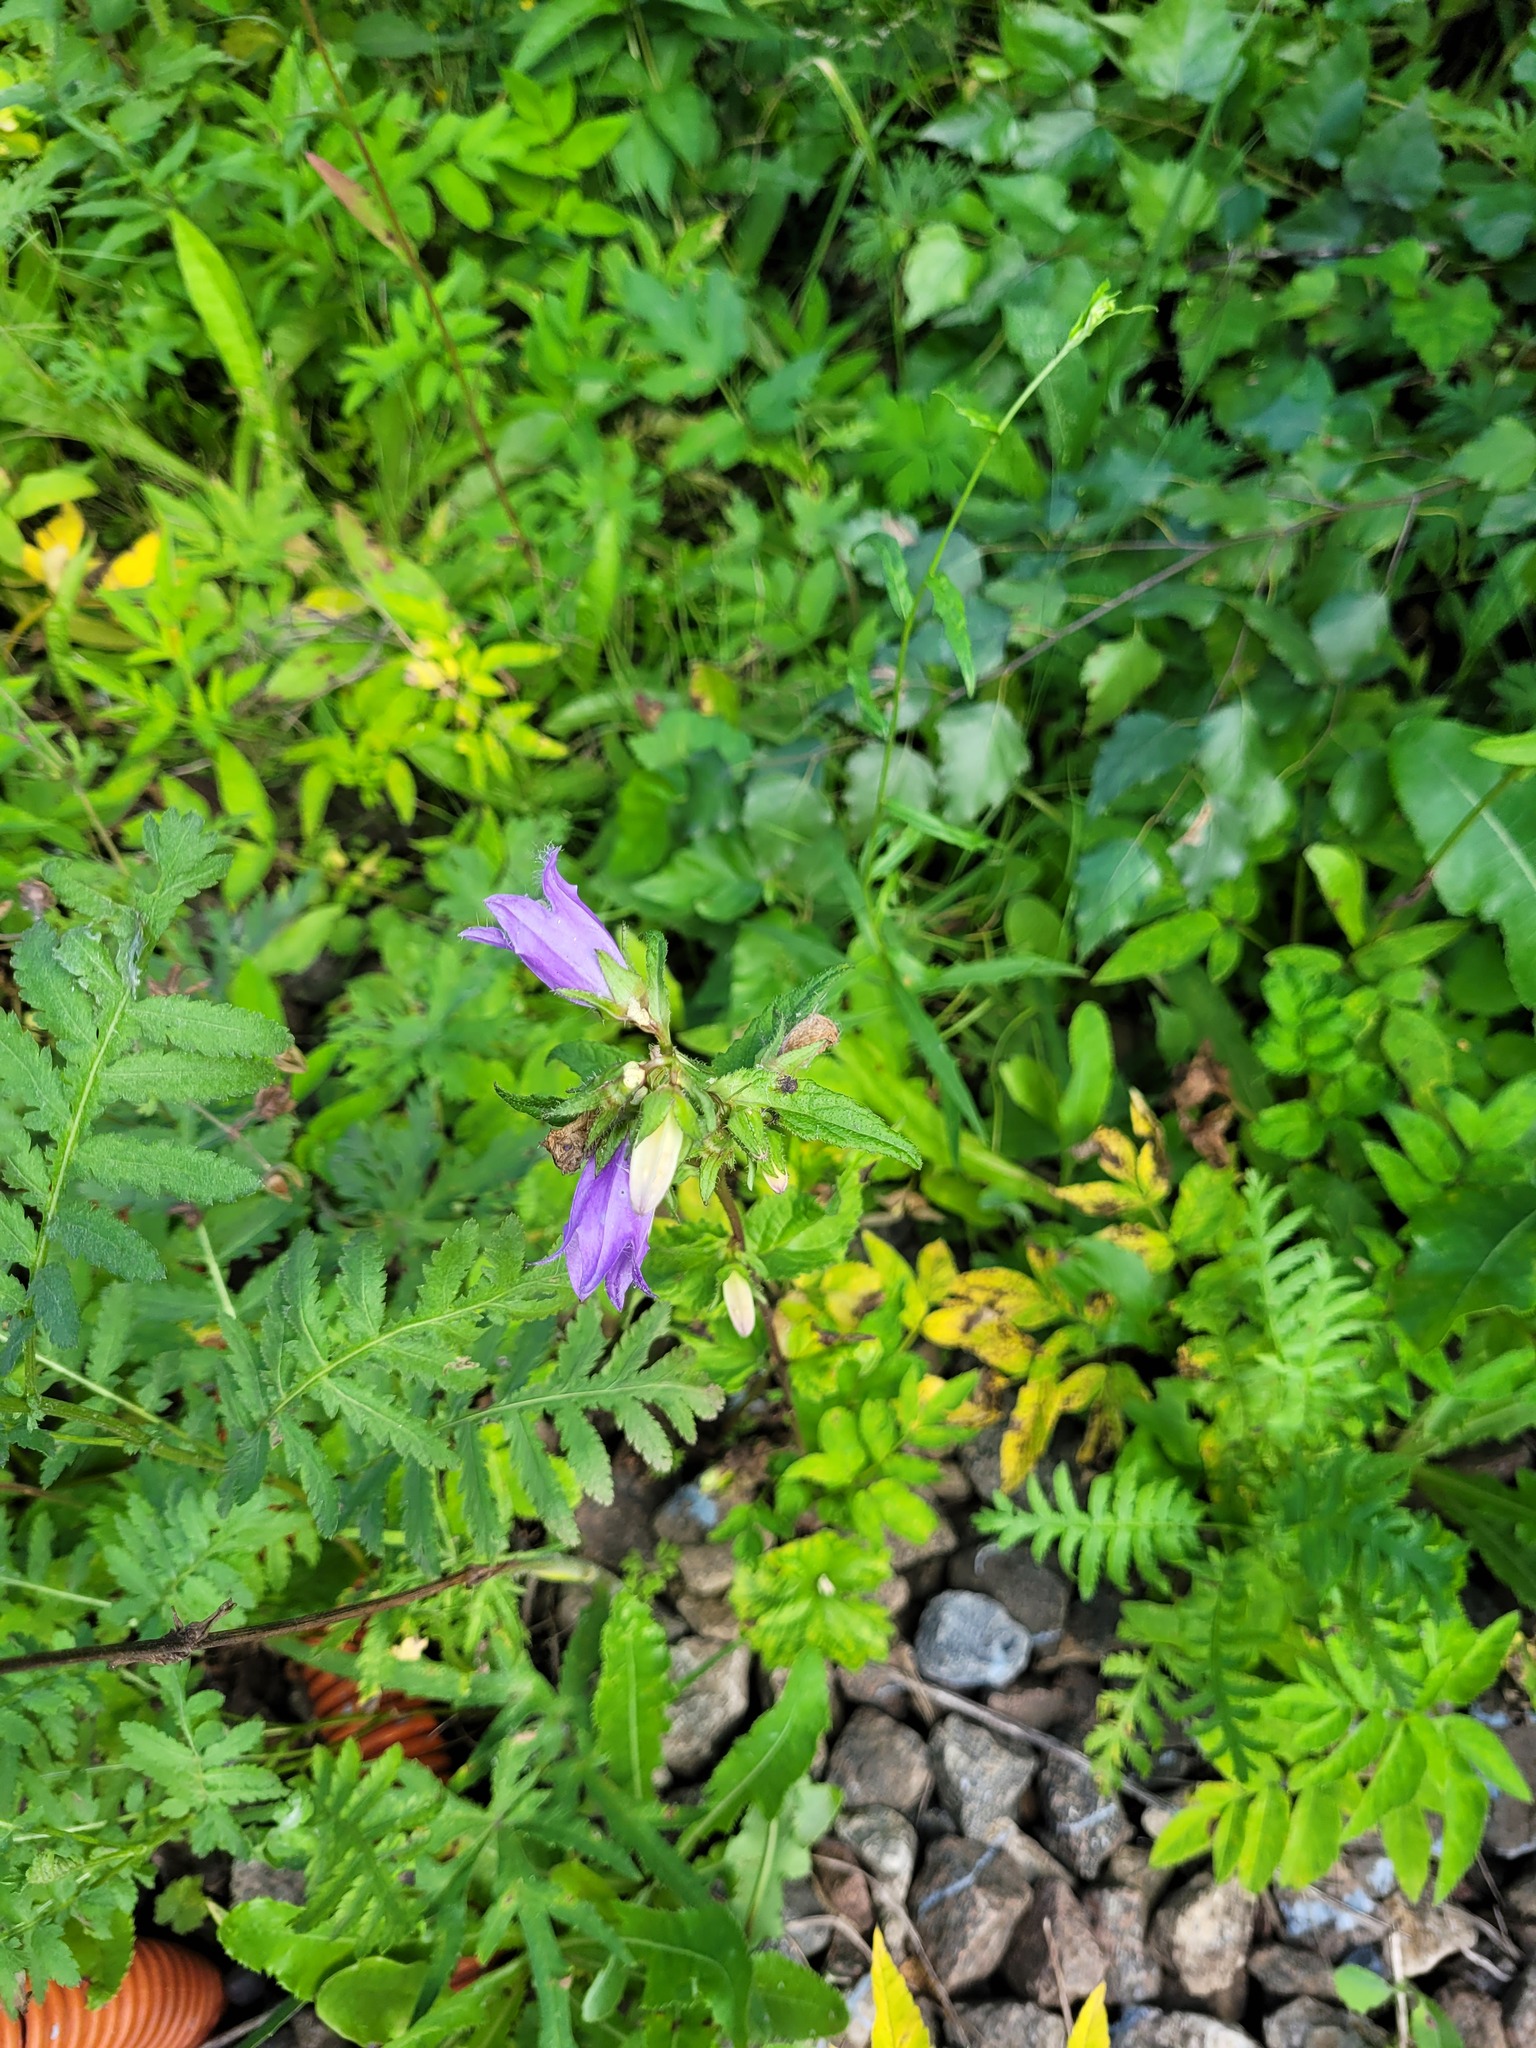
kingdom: Plantae
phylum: Tracheophyta
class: Magnoliopsida
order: Asterales
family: Campanulaceae
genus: Campanula
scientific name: Campanula trachelium
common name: Nettle-leaved bellflower
